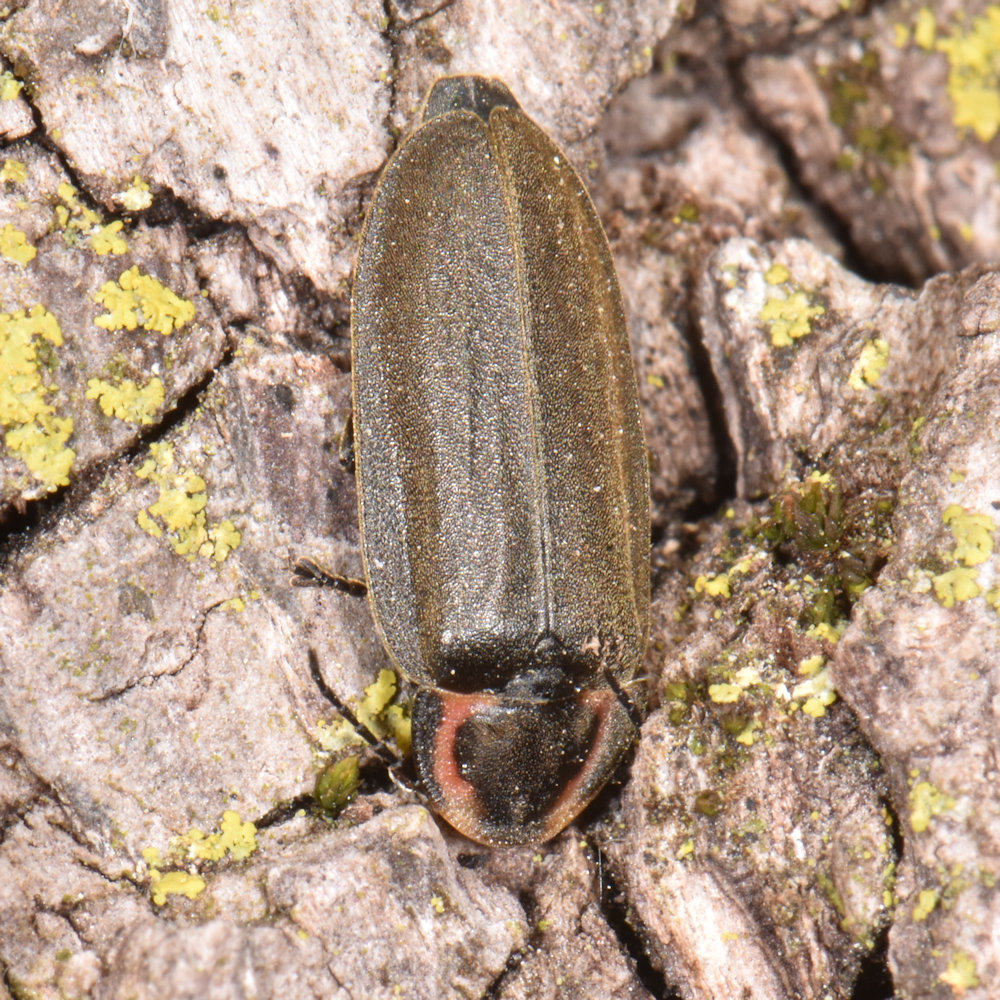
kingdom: Animalia
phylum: Arthropoda
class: Insecta
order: Coleoptera
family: Lampyridae
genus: Photinus
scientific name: Photinus corrusca
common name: Winter firefly
